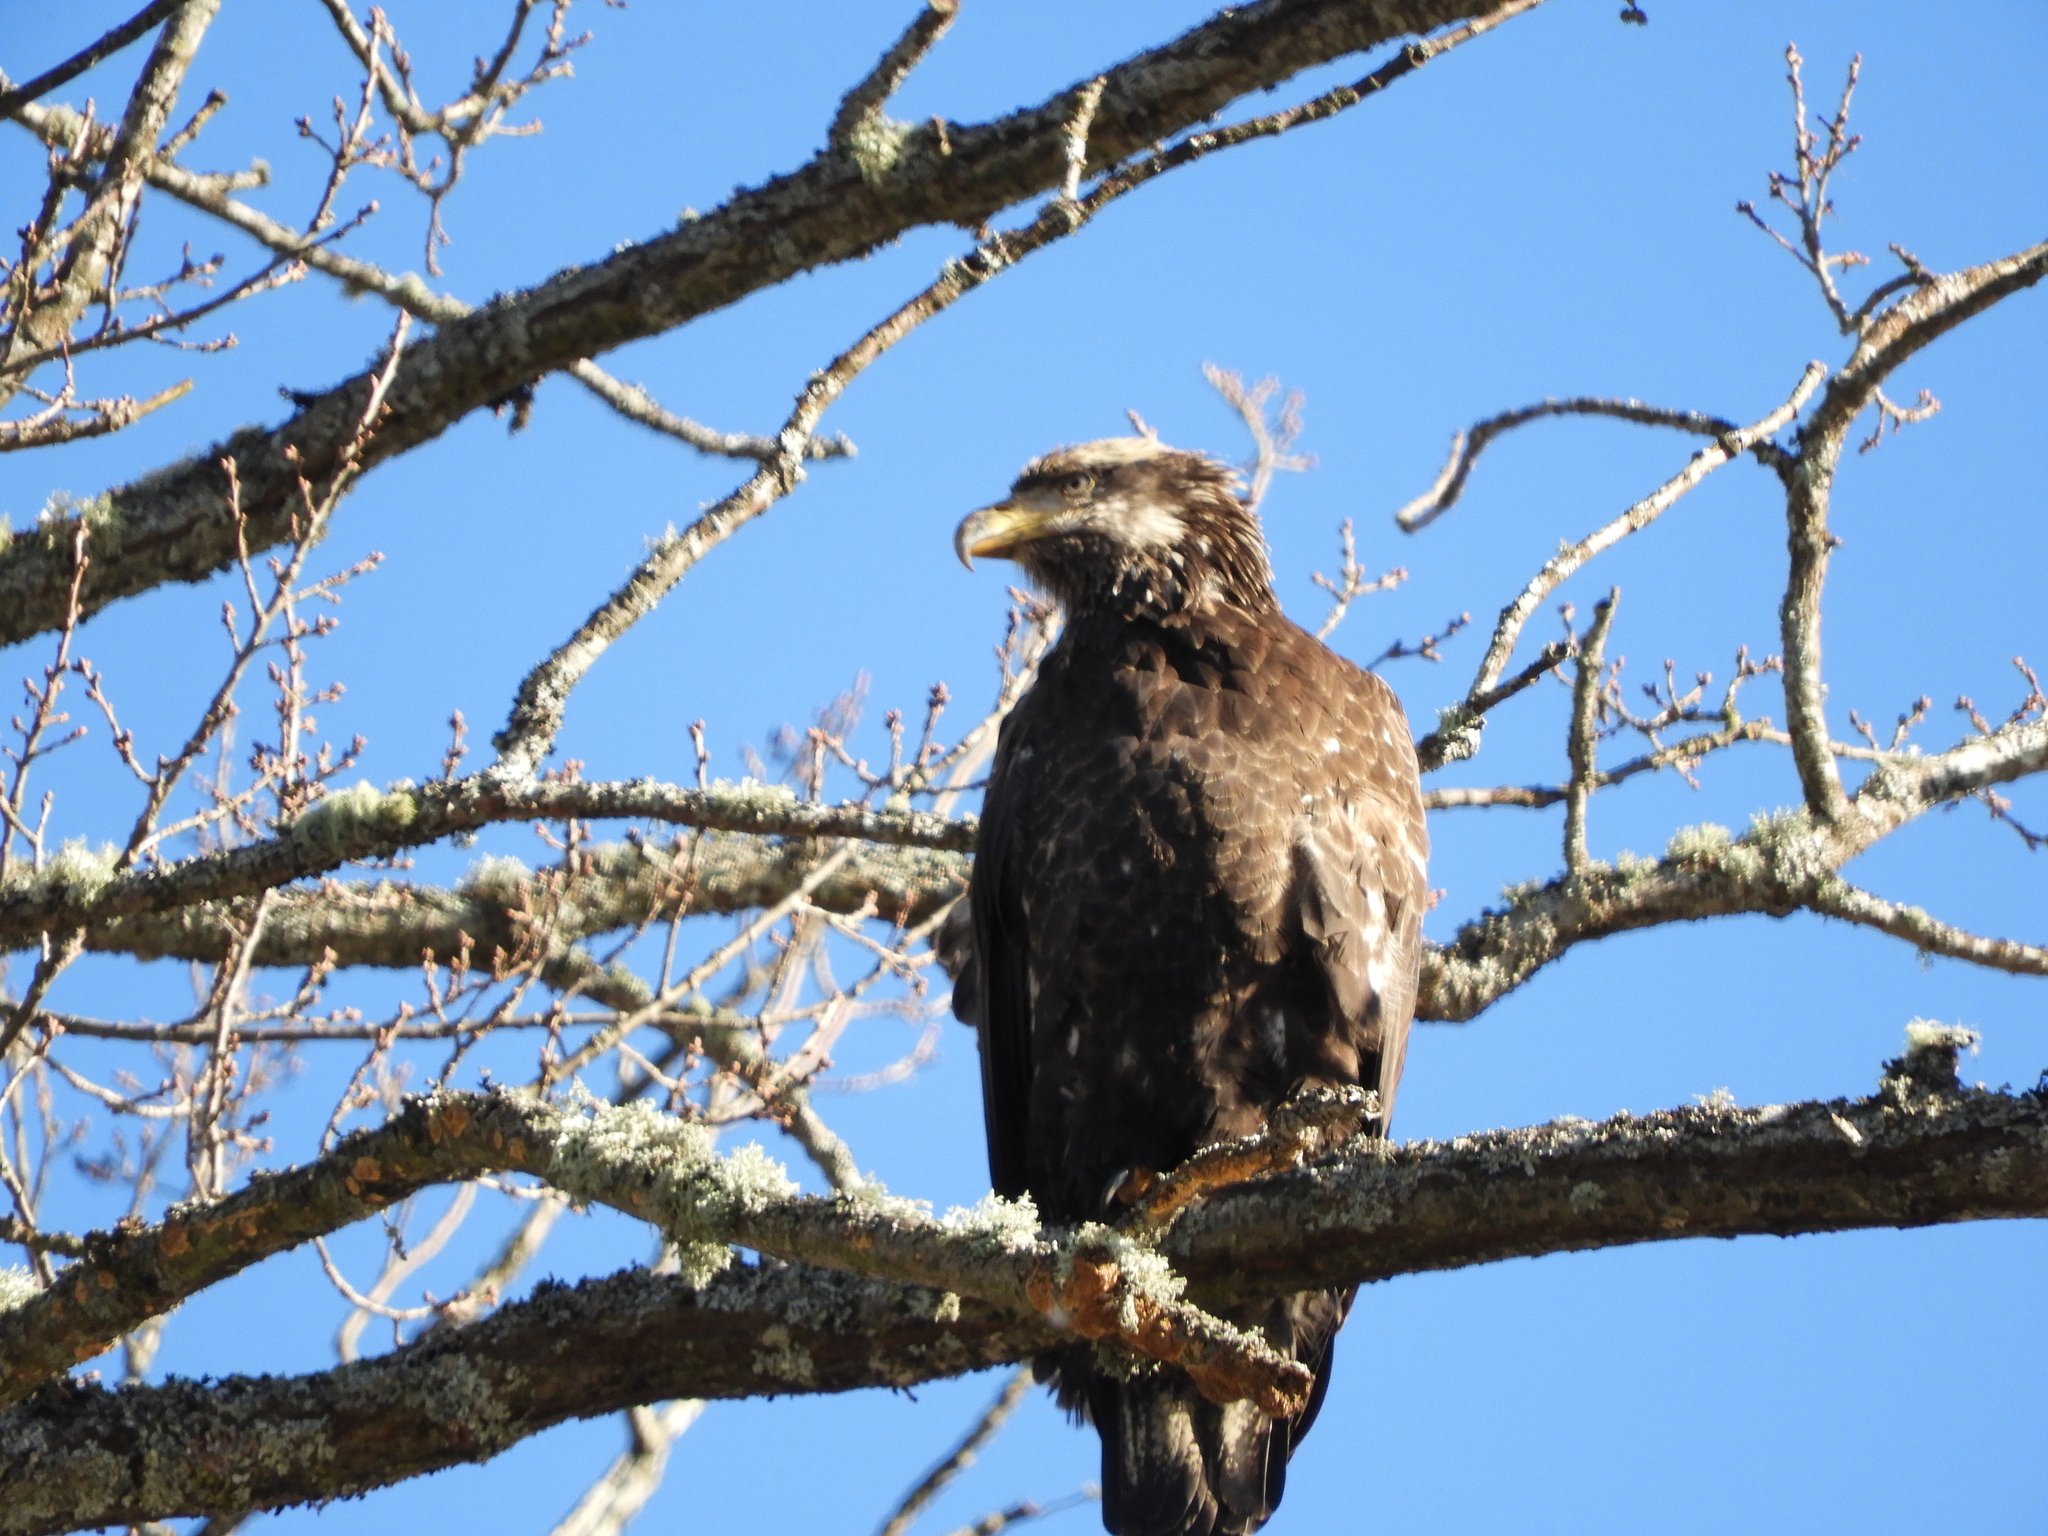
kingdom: Animalia
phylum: Chordata
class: Aves
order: Accipitriformes
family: Accipitridae
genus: Haliaeetus
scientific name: Haliaeetus leucocephalus
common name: Bald eagle
